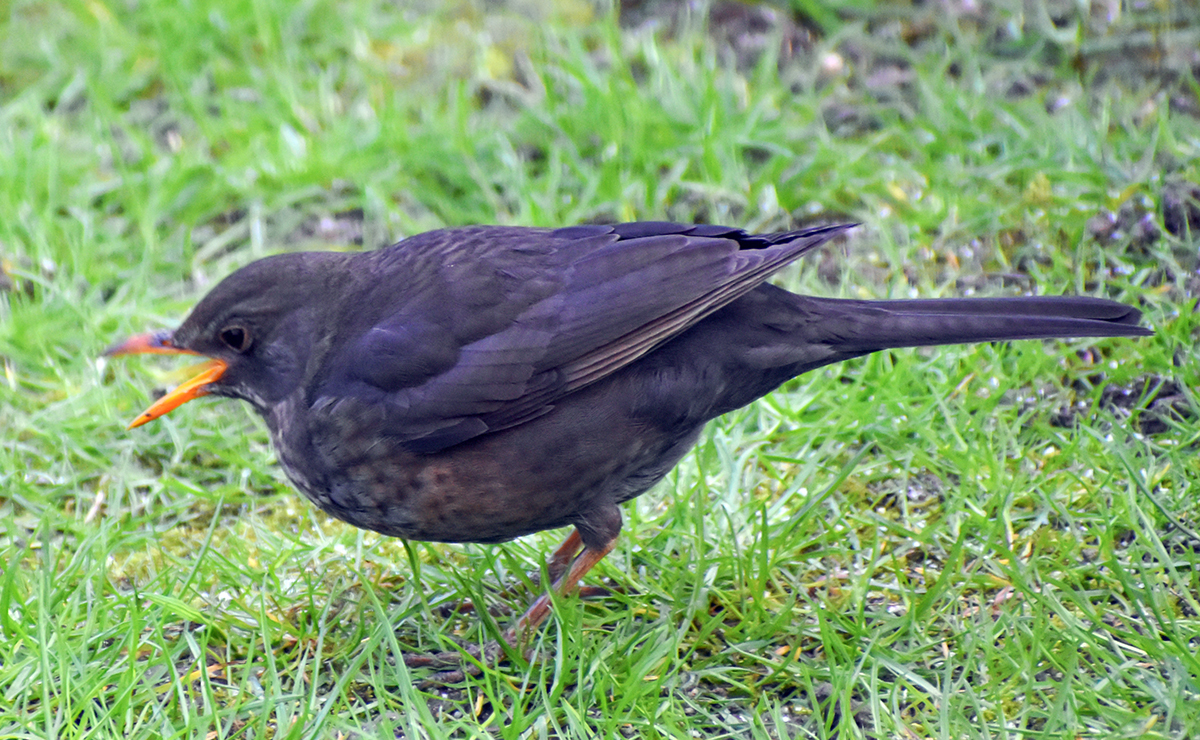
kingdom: Animalia
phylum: Chordata
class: Aves
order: Passeriformes
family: Turdidae
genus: Turdus
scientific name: Turdus merula
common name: Common blackbird
